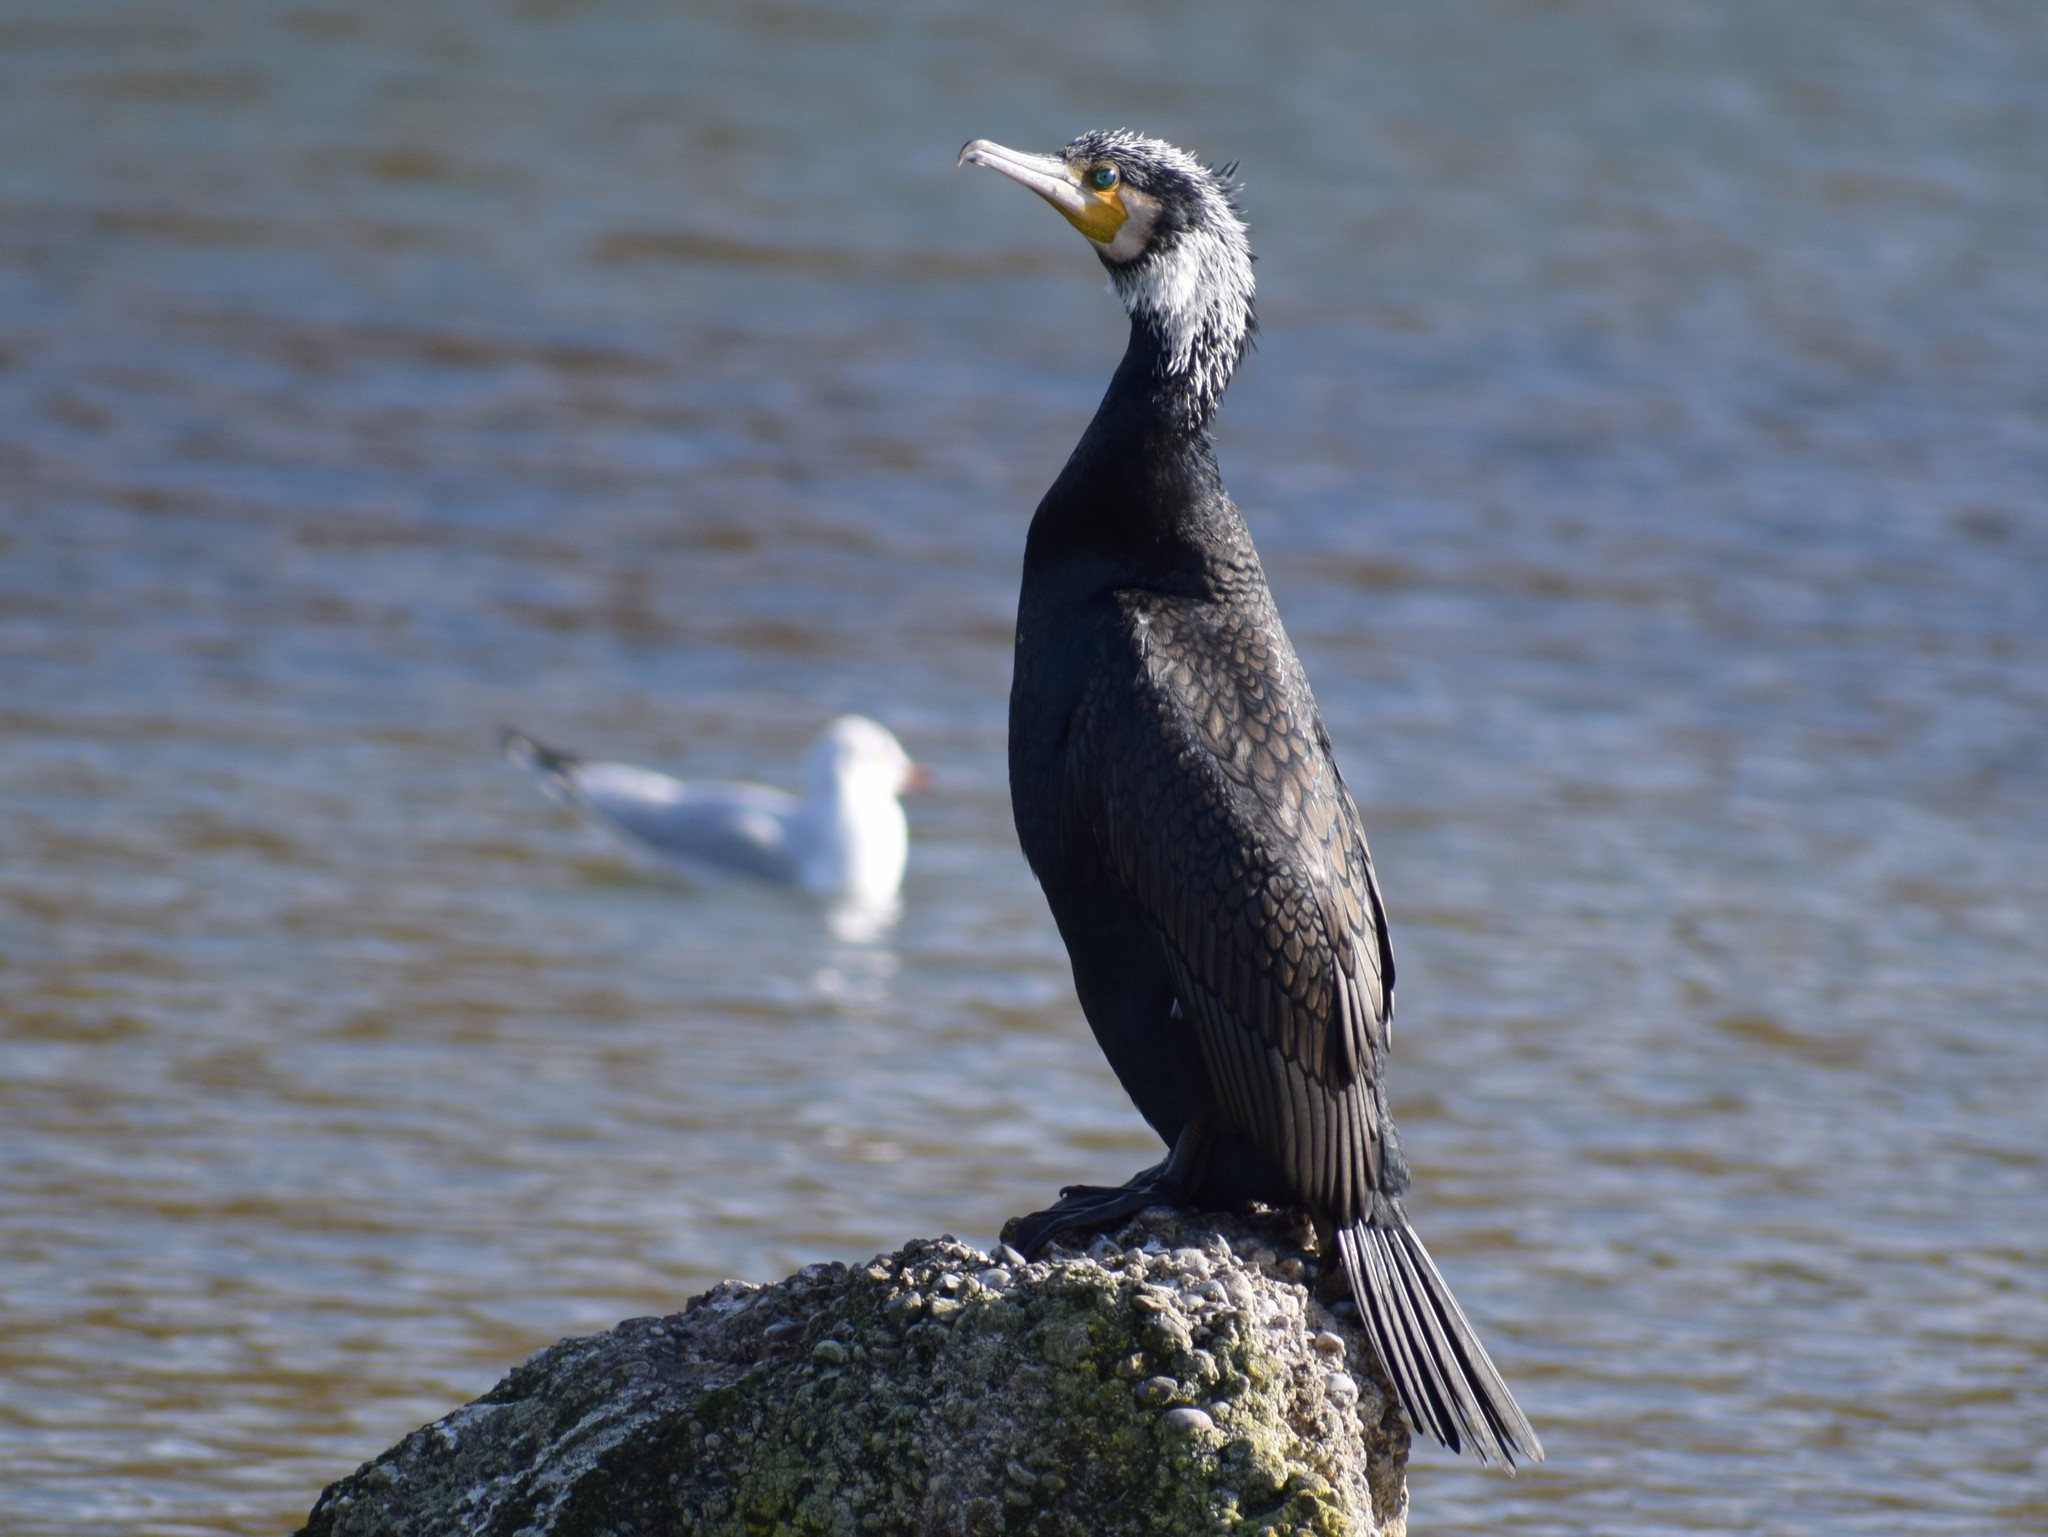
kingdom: Animalia
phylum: Chordata
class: Aves
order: Suliformes
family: Phalacrocoracidae
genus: Phalacrocorax
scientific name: Phalacrocorax carbo
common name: Great cormorant
